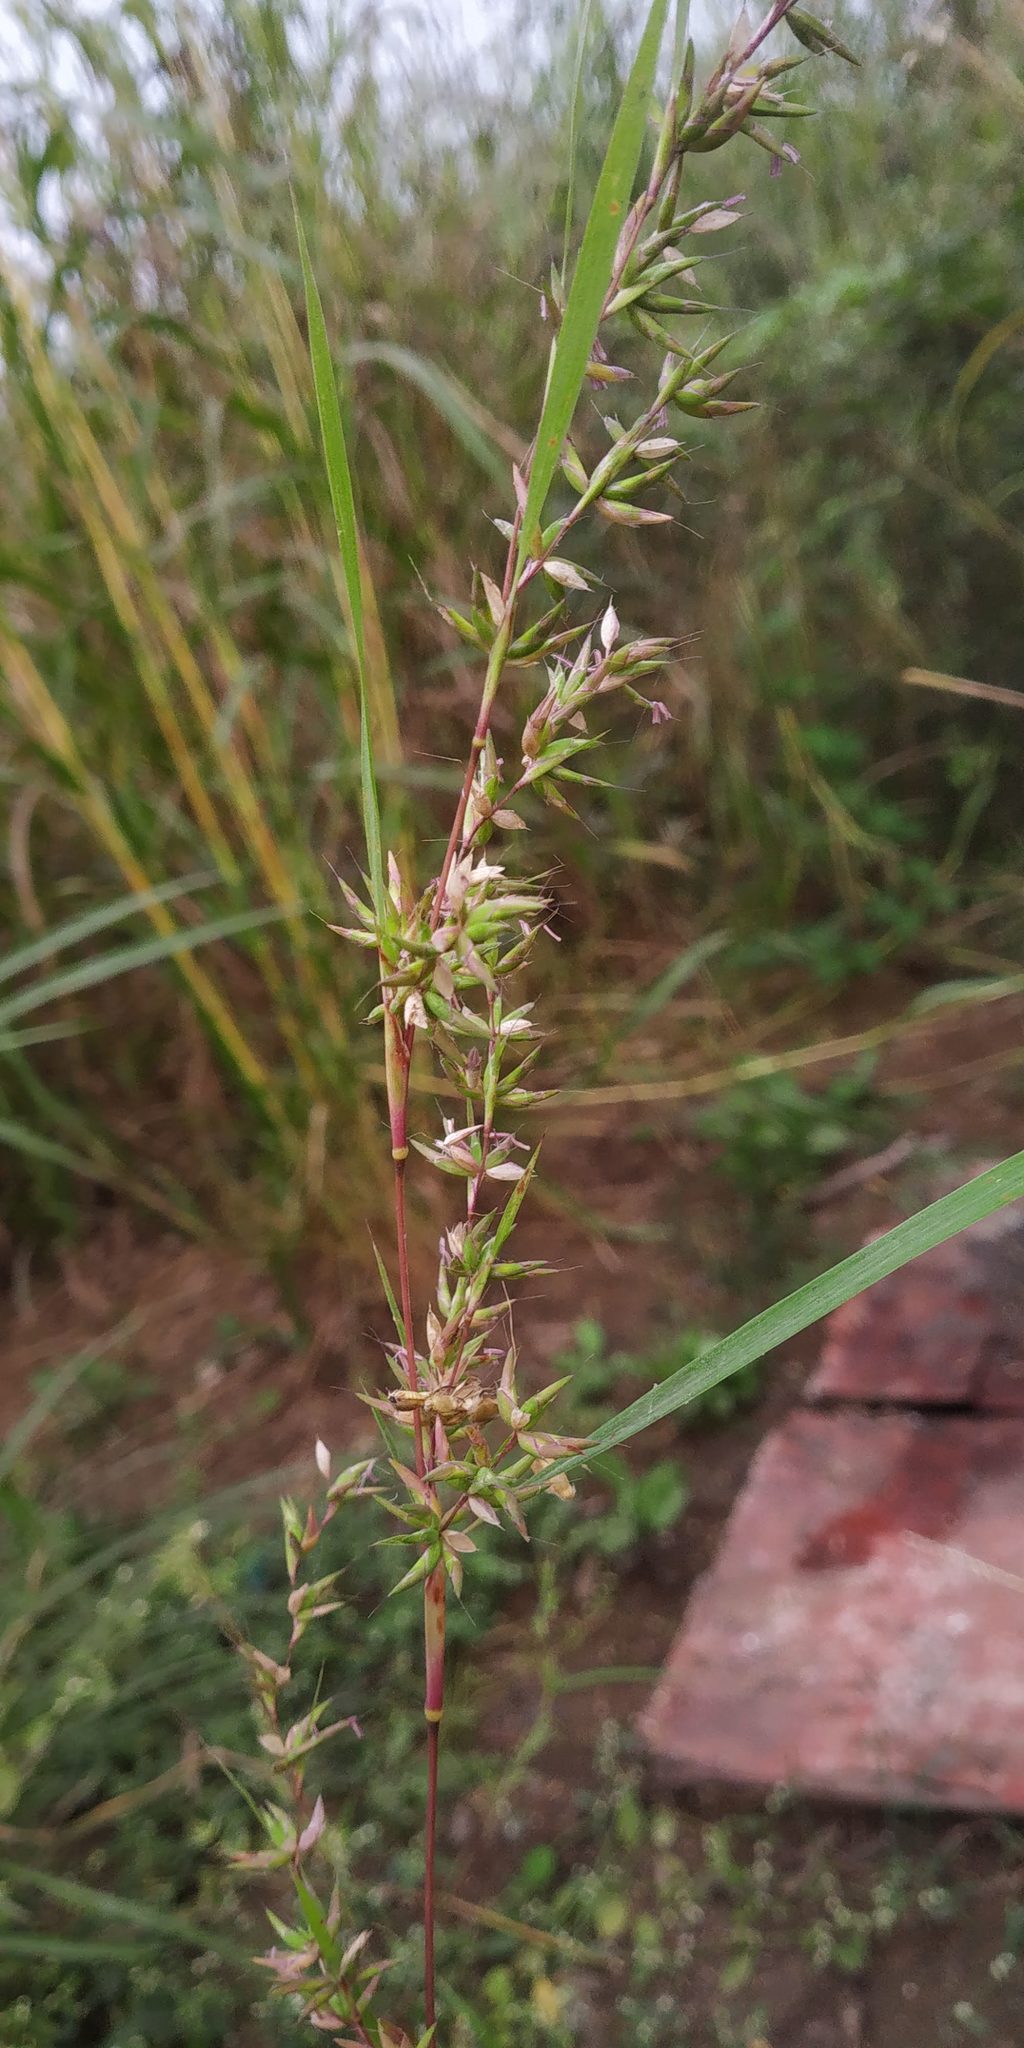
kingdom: Plantae
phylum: Tracheophyta
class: Liliopsida
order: Poales
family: Poaceae
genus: Apluda
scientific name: Apluda mutica
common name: Mauritian grass
